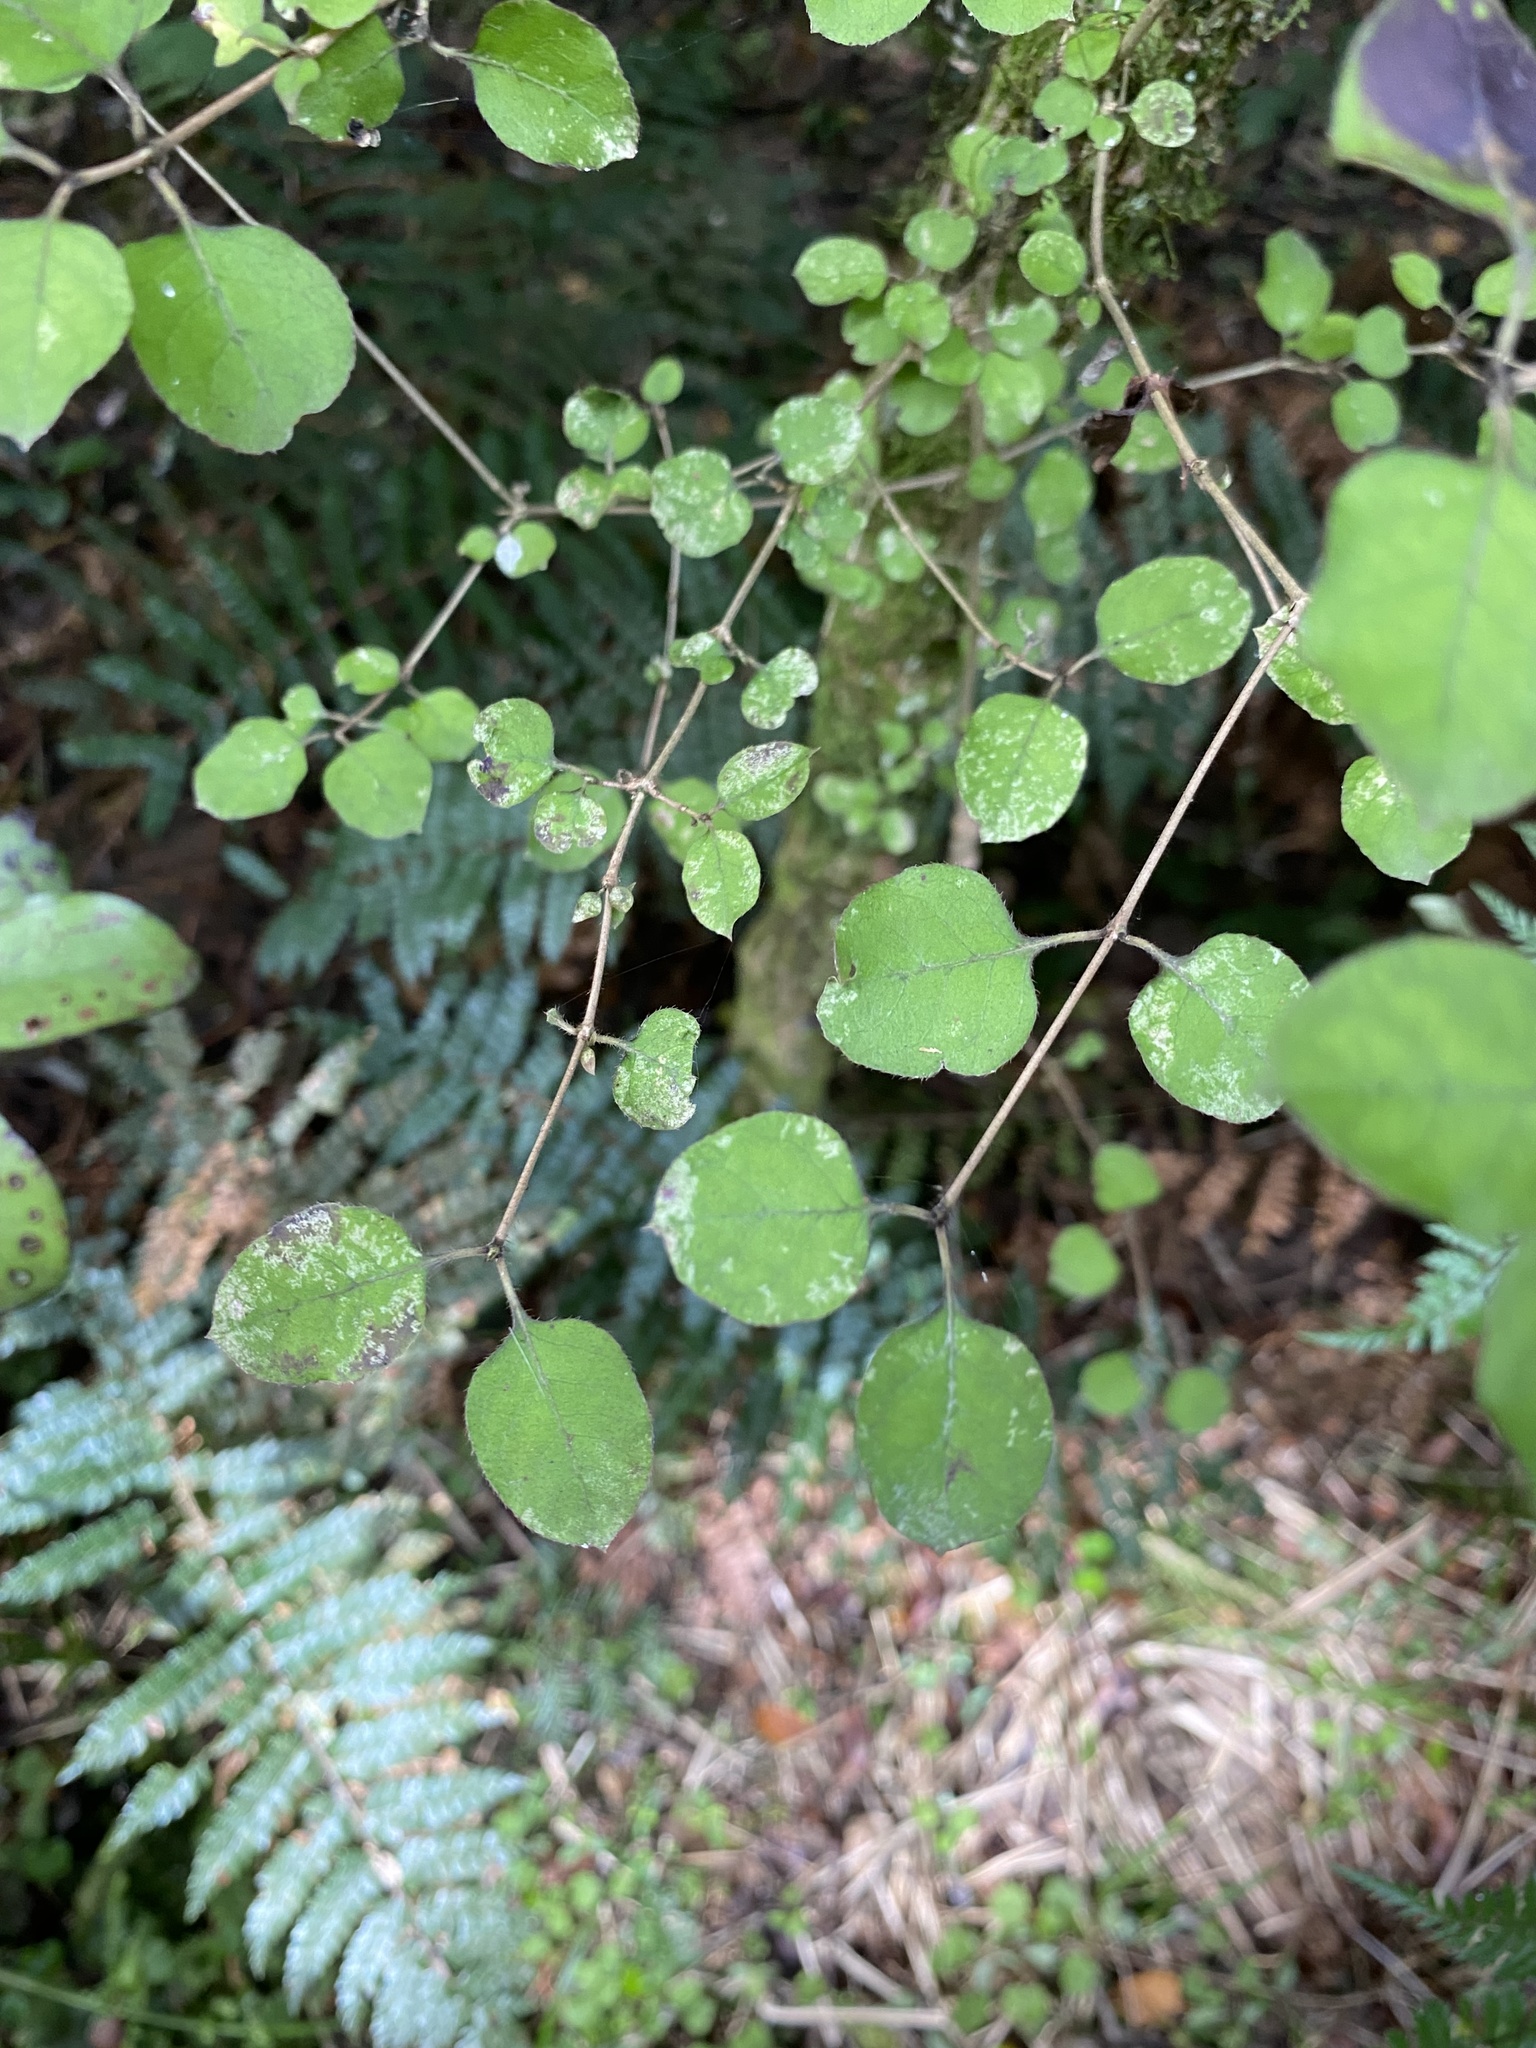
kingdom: Plantae
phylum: Tracheophyta
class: Magnoliopsida
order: Gentianales
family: Rubiaceae
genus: Coprosma
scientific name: Coprosma rotundifolia
